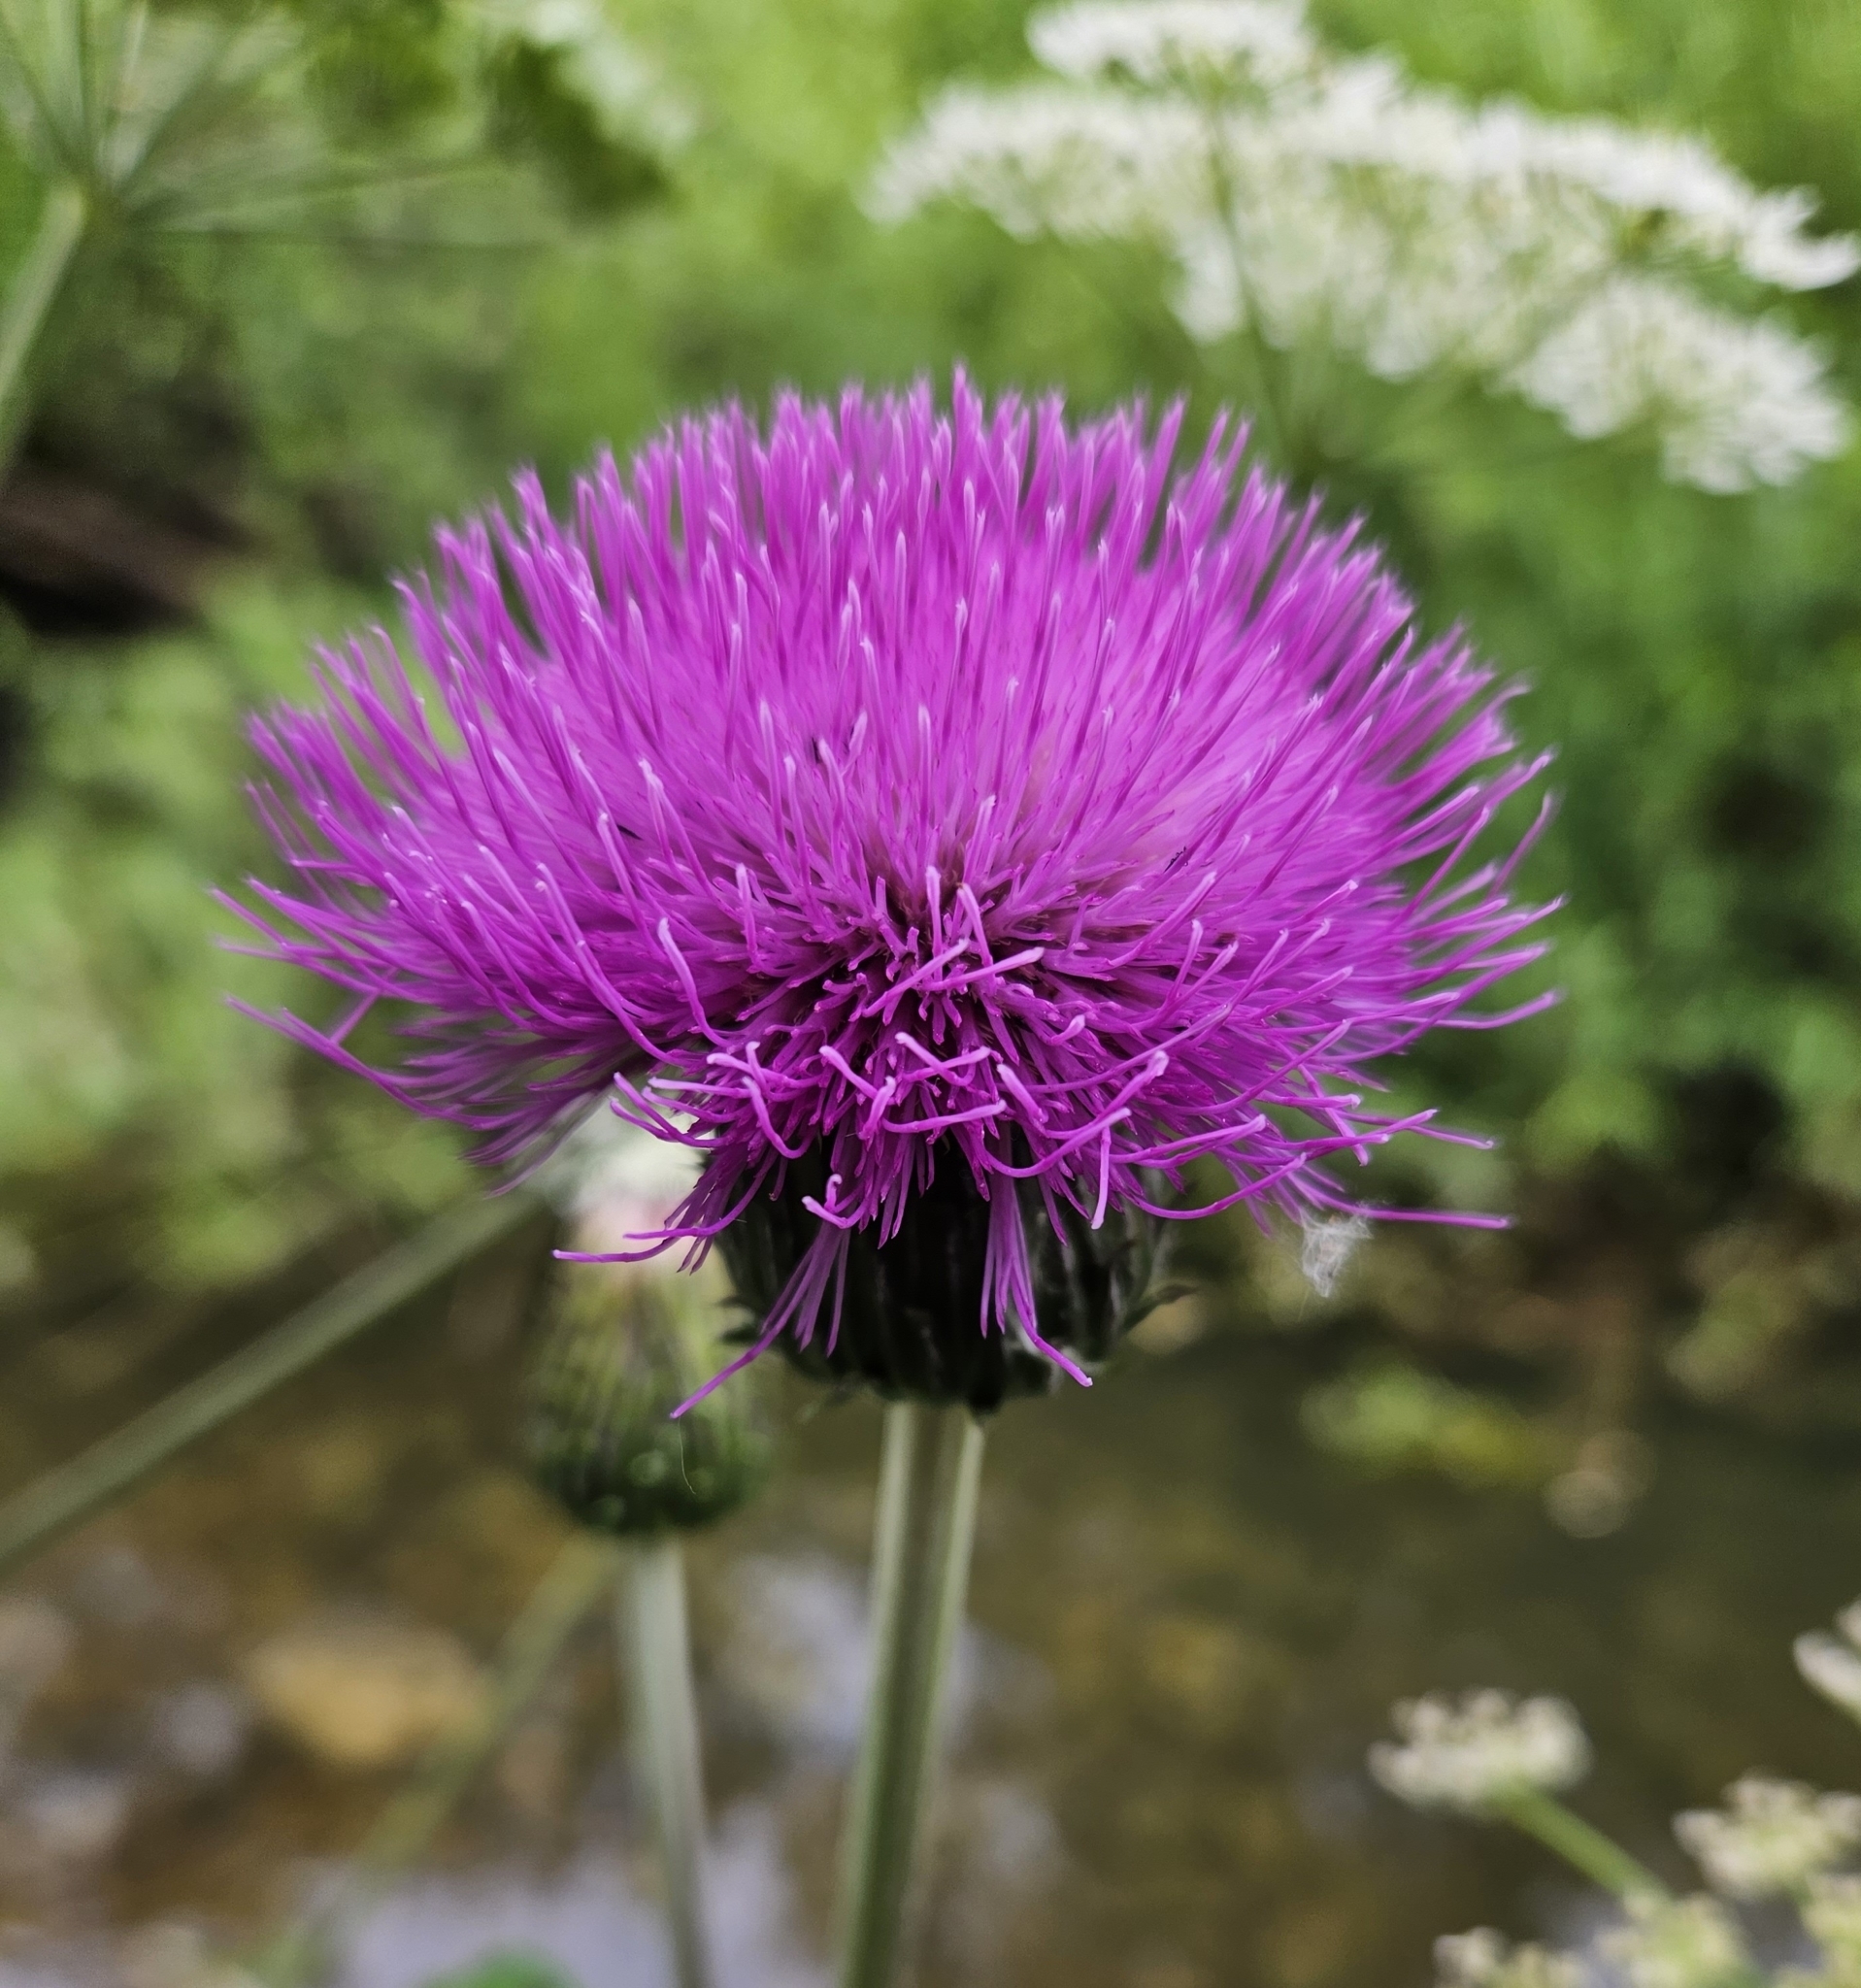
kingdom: Plantae
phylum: Tracheophyta
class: Magnoliopsida
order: Asterales
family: Asteraceae
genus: Cirsium
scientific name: Cirsium heterophyllum
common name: Melancholy thistle
